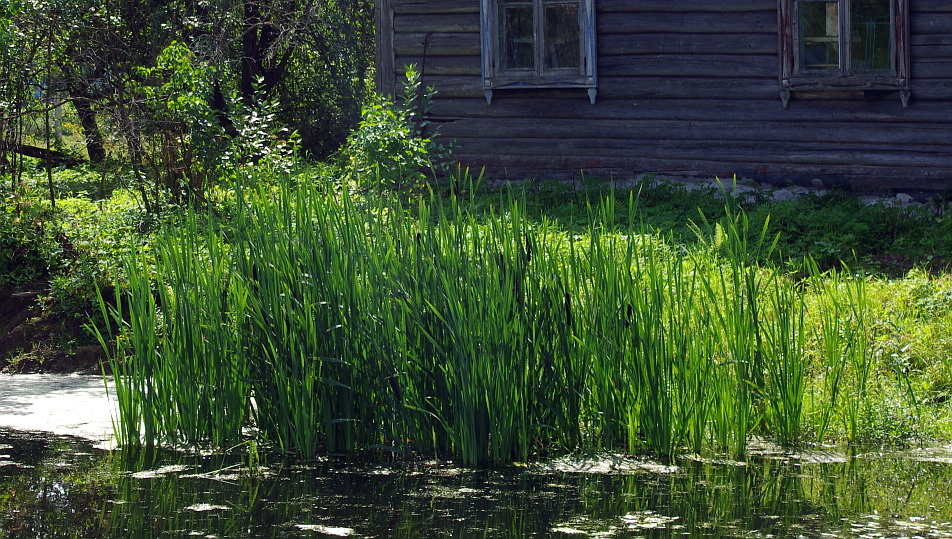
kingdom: Plantae
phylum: Tracheophyta
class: Liliopsida
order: Poales
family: Typhaceae
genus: Typha
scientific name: Typha latifolia
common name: Broadleaf cattail
